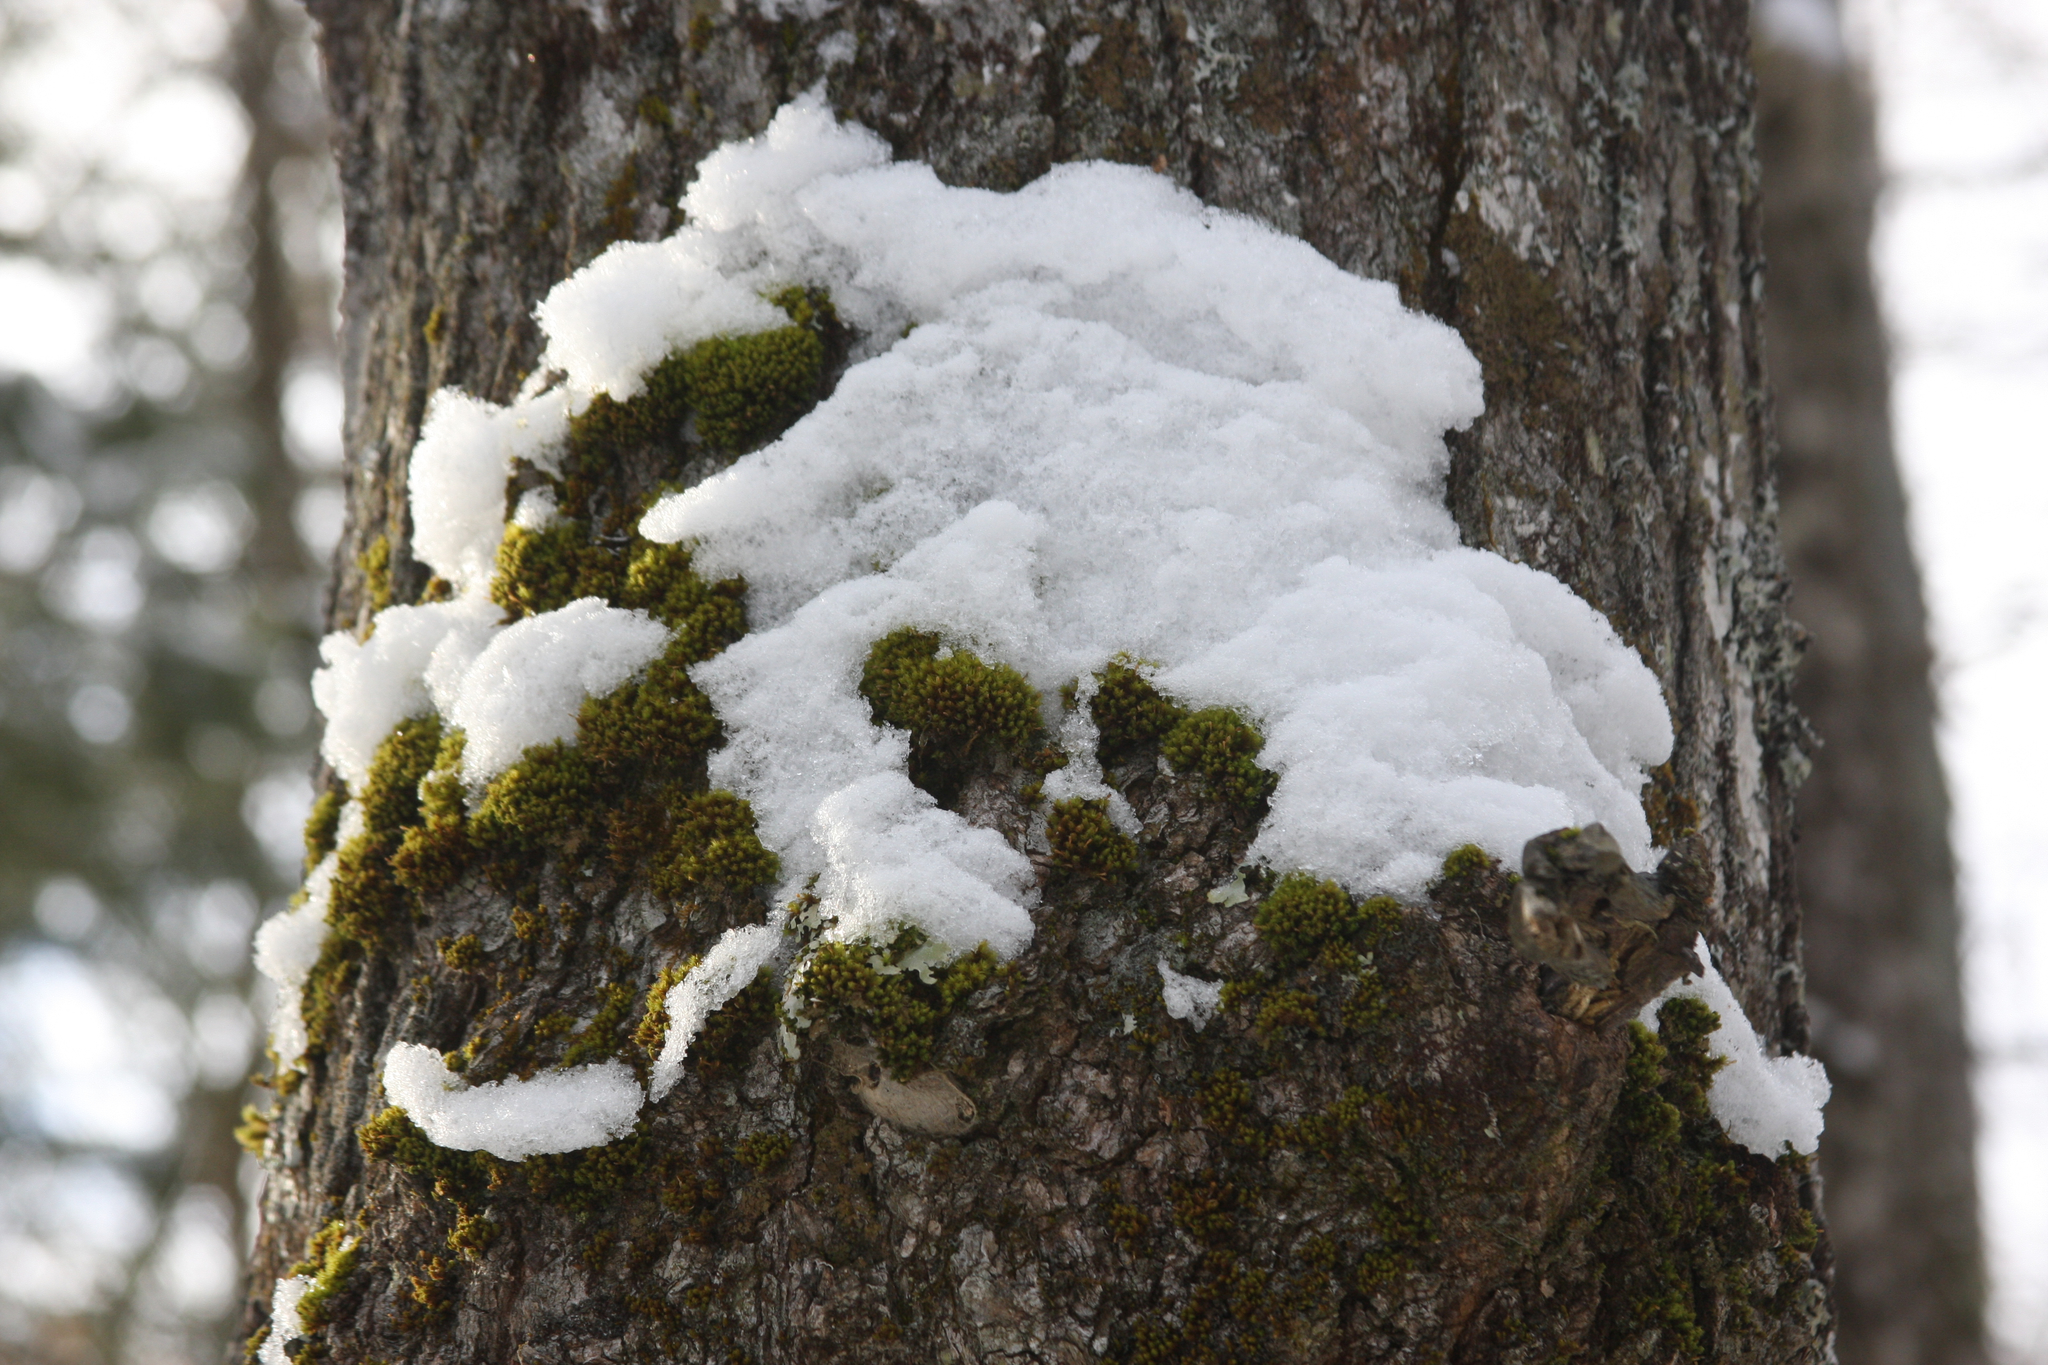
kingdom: Plantae
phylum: Bryophyta
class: Bryopsida
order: Orthotrichales
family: Orthotrichaceae
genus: Ulota
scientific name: Ulota crispa
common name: Crisped pincushion moss
